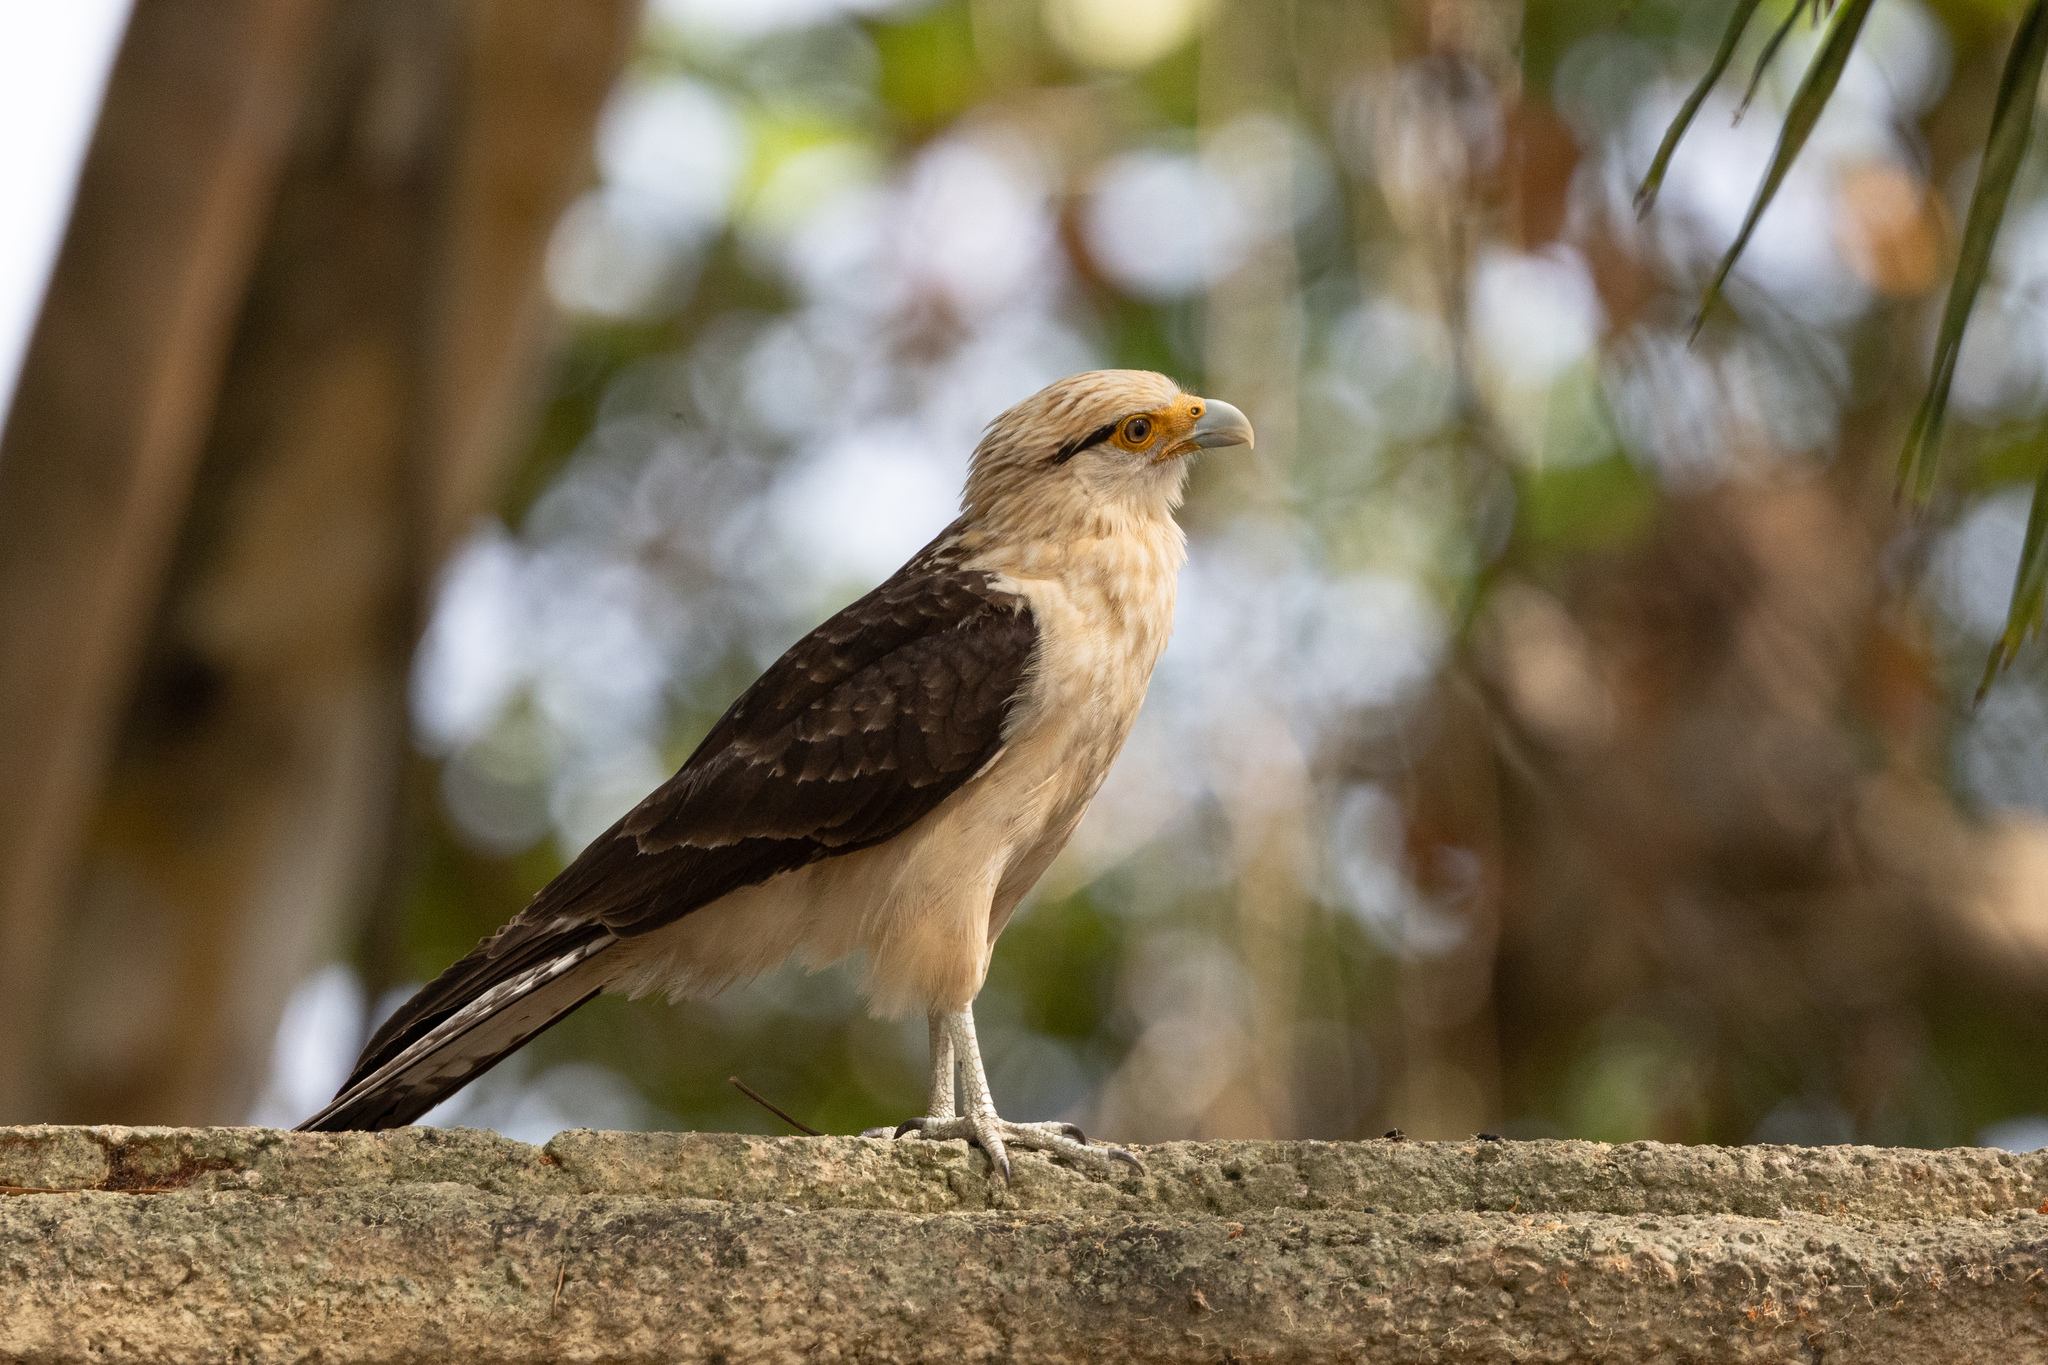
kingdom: Animalia
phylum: Chordata
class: Aves
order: Falconiformes
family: Falconidae
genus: Daptrius
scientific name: Daptrius
